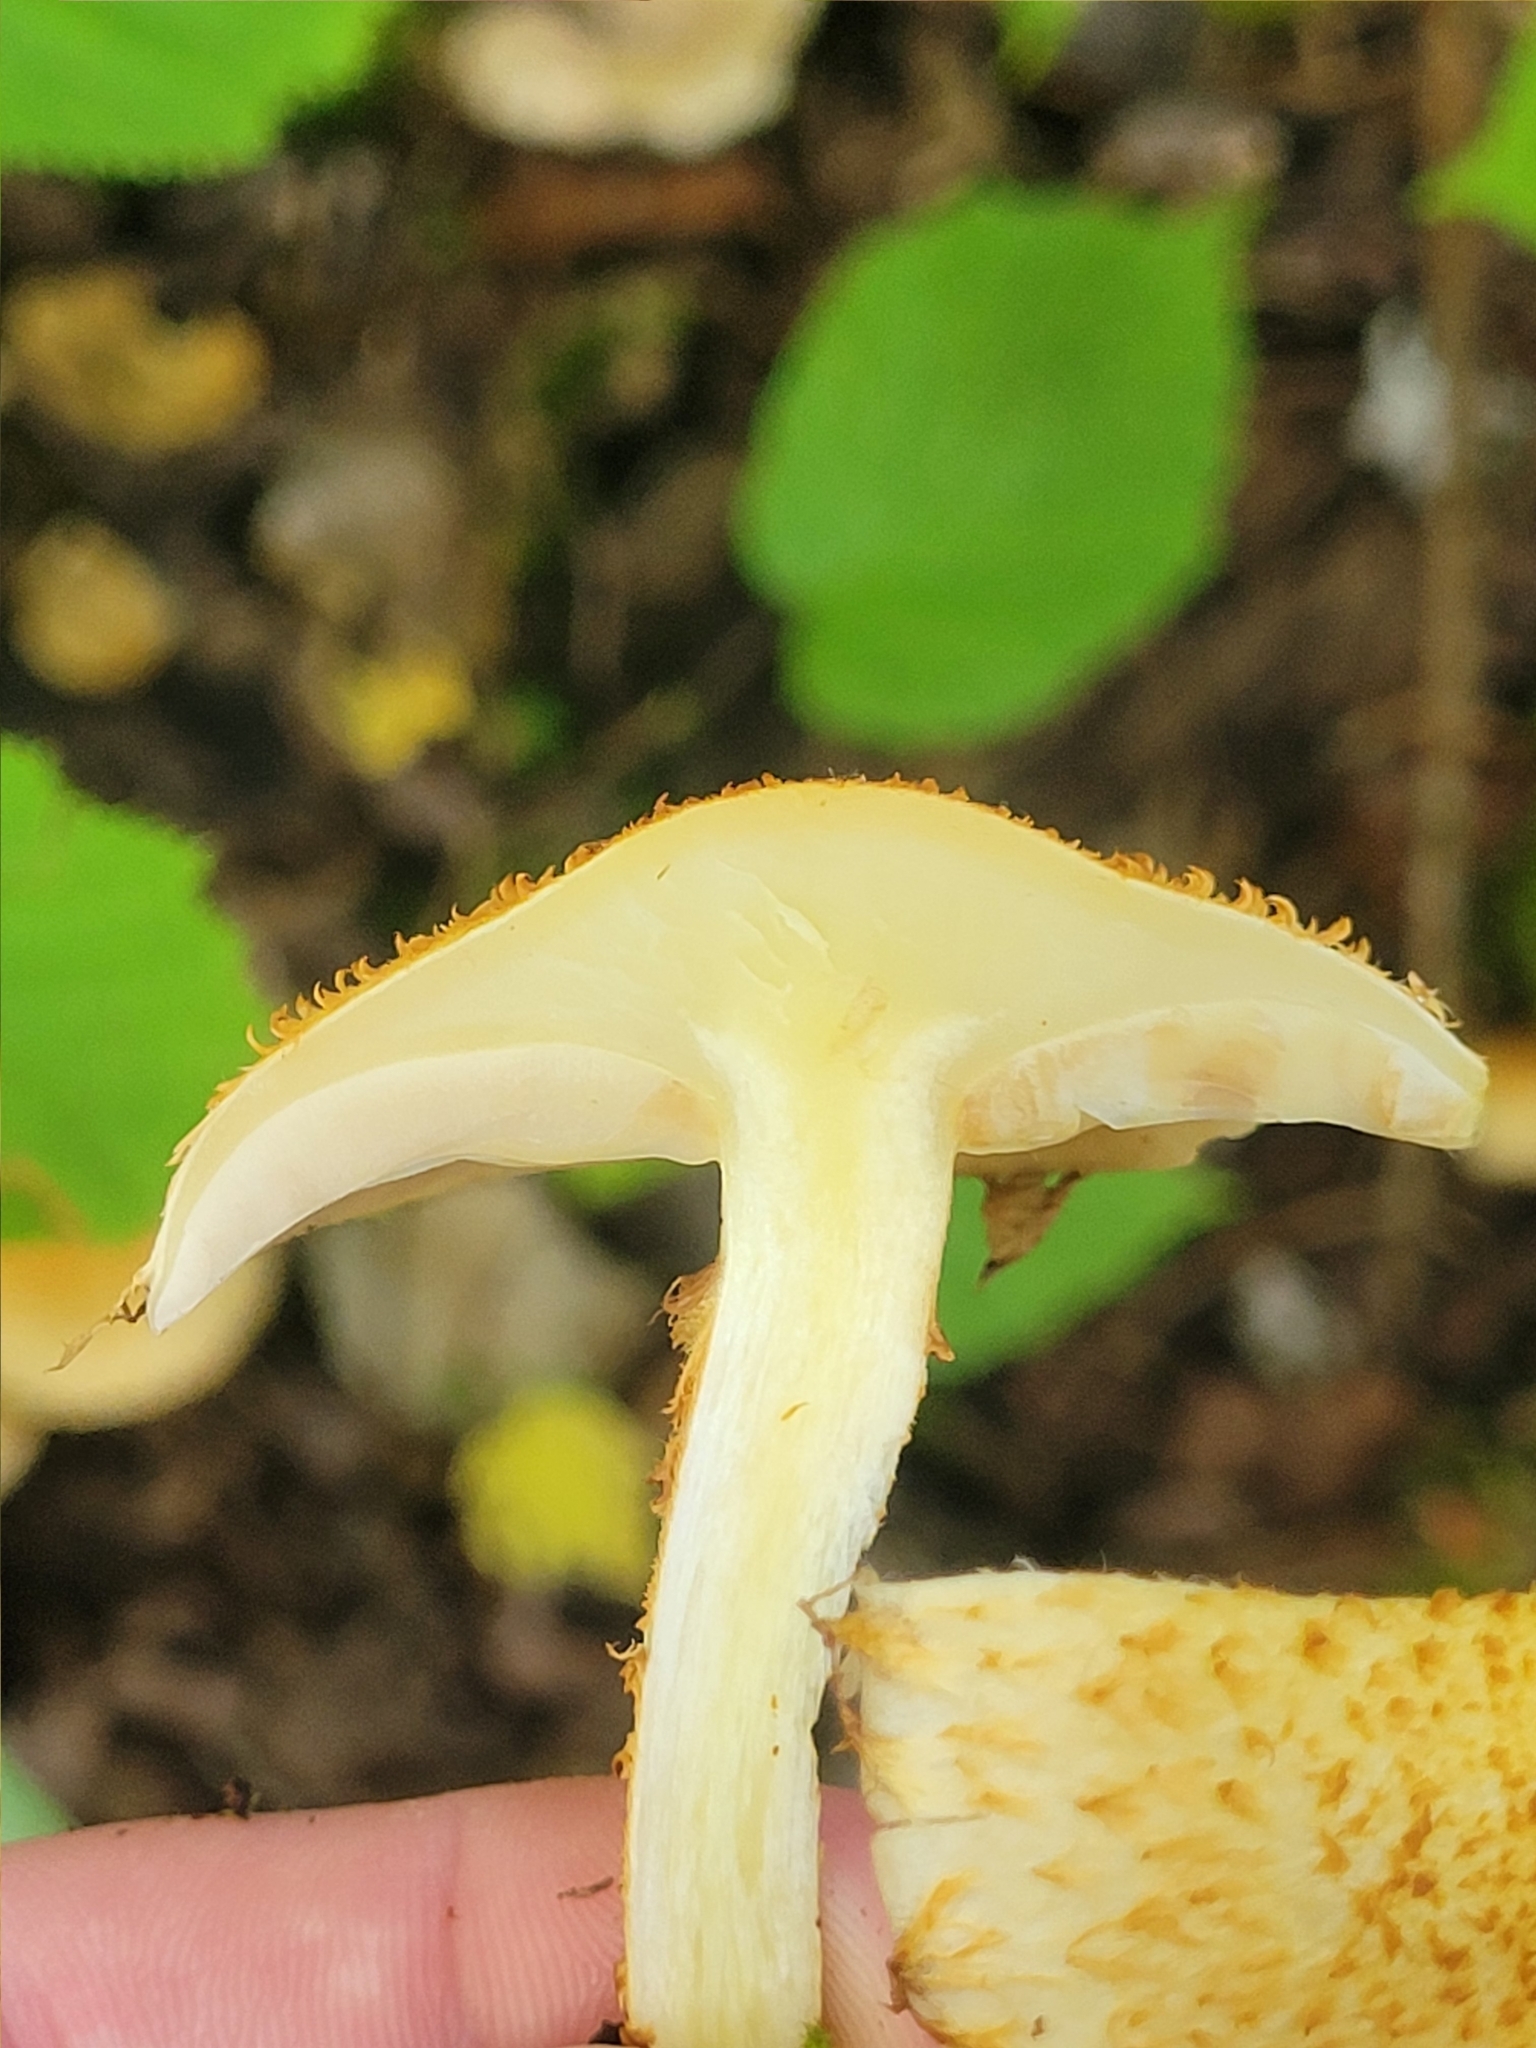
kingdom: Fungi
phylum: Basidiomycota
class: Agaricomycetes
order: Agaricales
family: Strophariaceae
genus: Pholiota
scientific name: Pholiota squarrosoides
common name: Sharp-scaly pholiota
